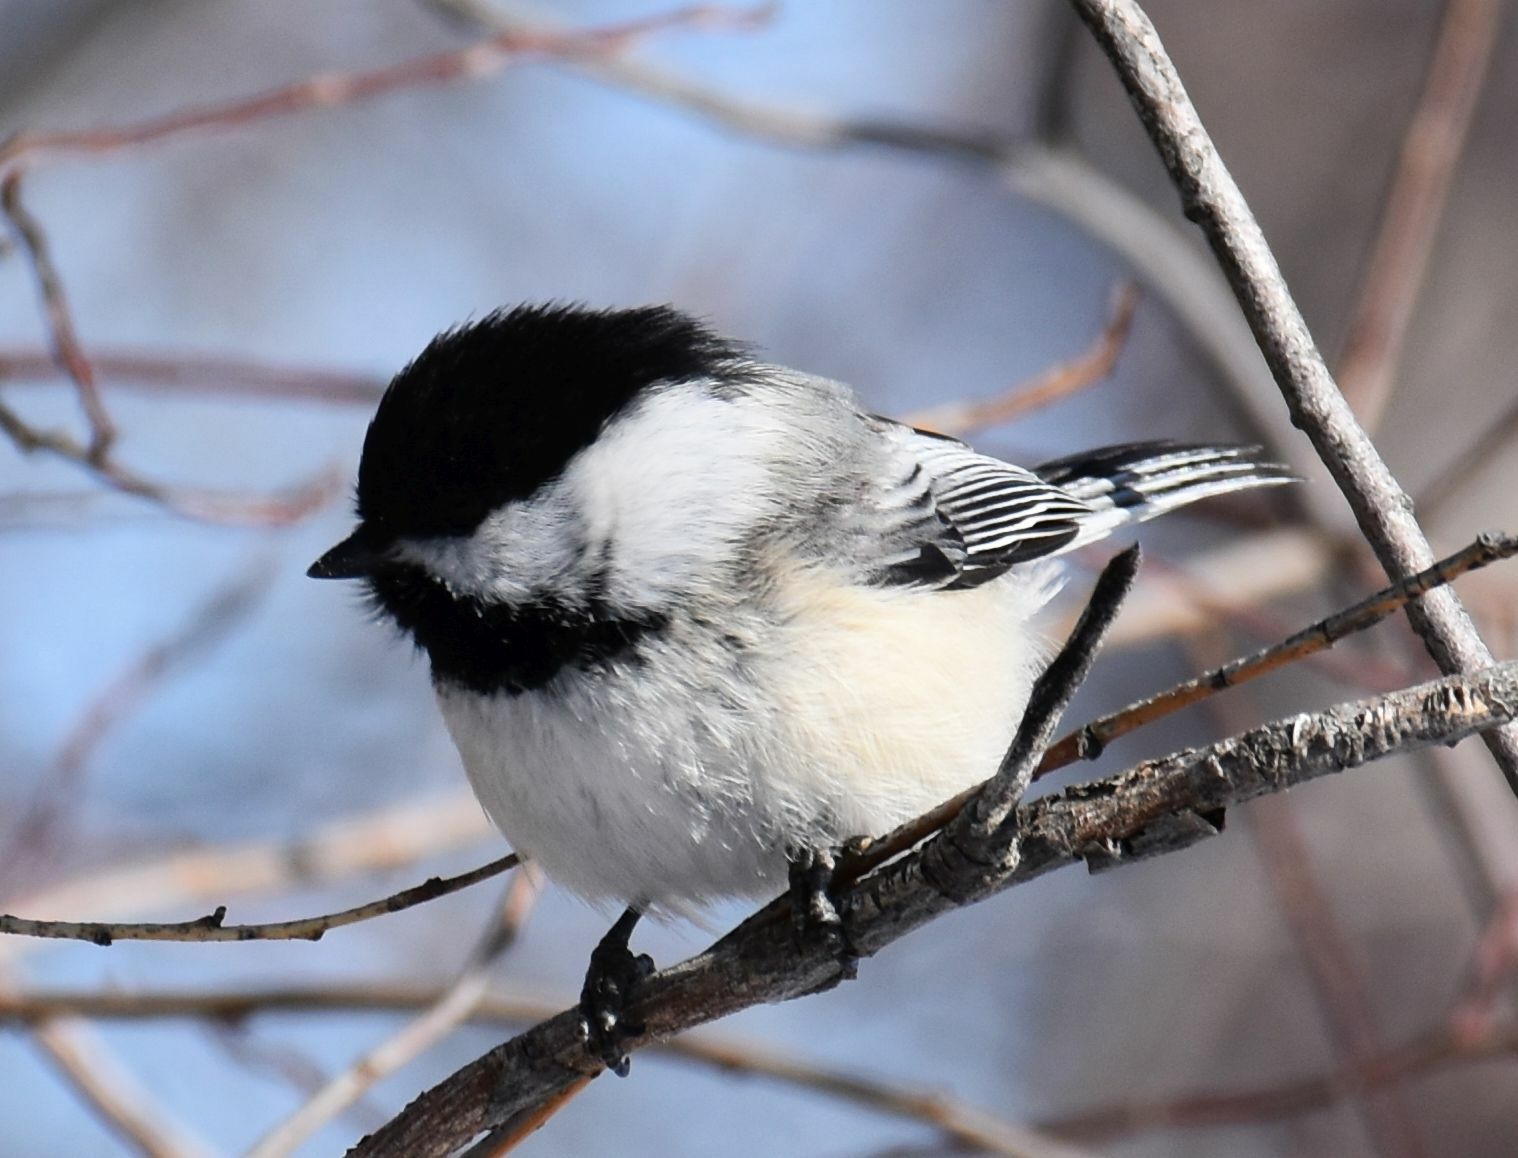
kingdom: Animalia
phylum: Chordata
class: Aves
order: Passeriformes
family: Paridae
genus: Poecile
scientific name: Poecile atricapillus
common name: Black-capped chickadee
